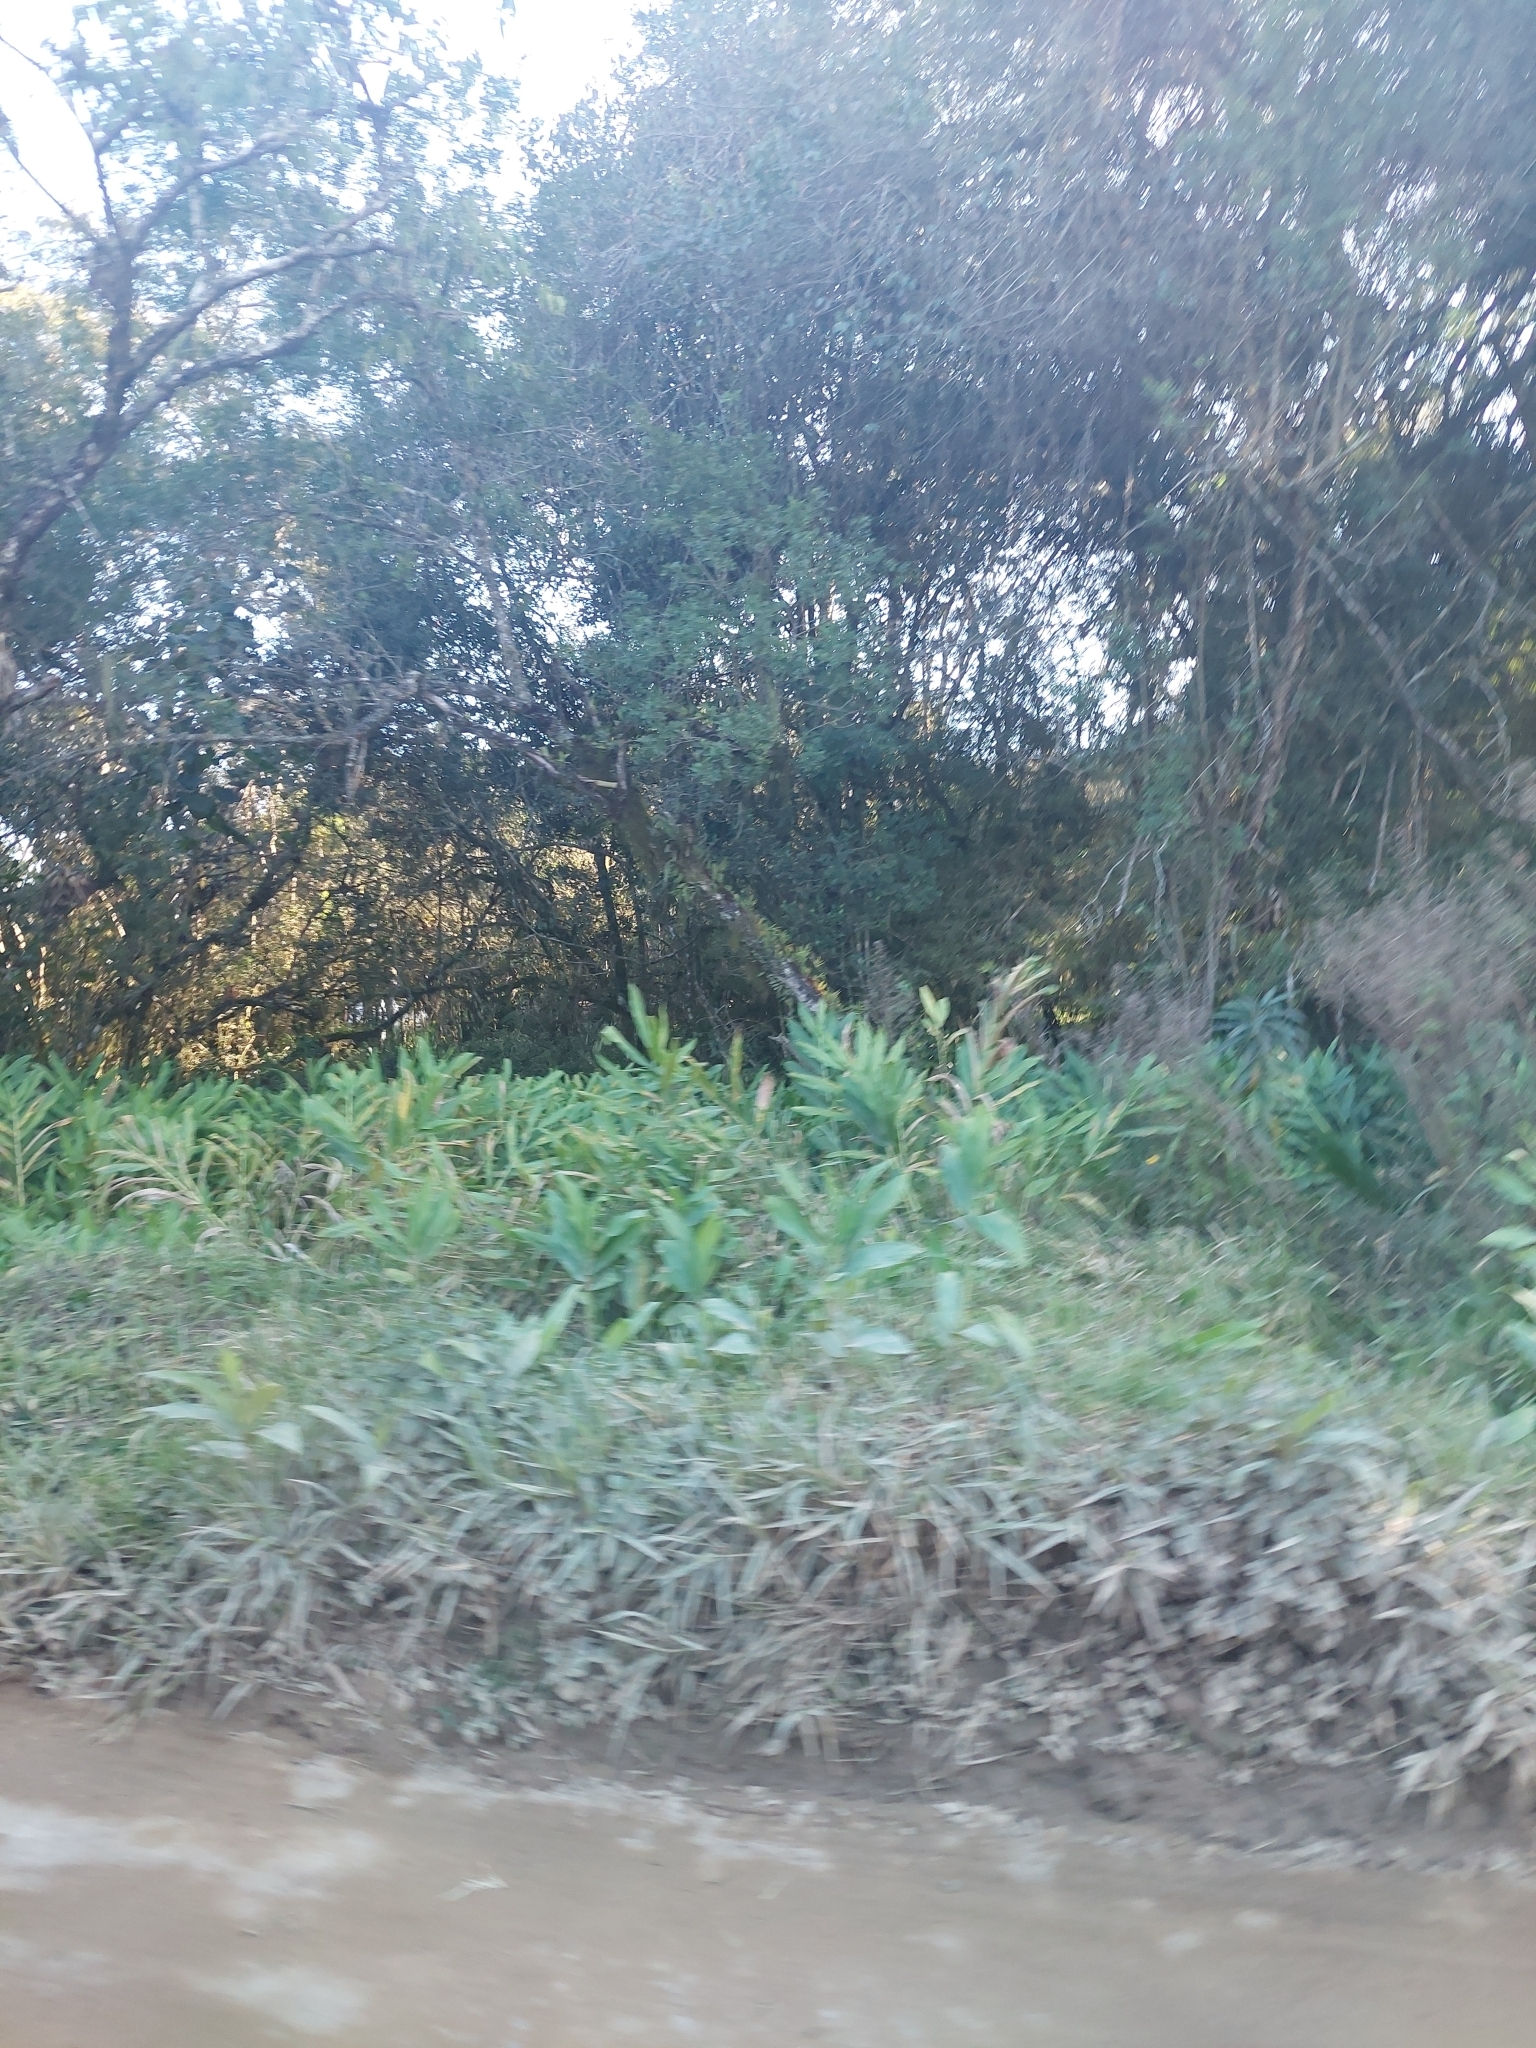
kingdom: Plantae
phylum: Tracheophyta
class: Liliopsida
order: Zingiberales
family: Zingiberaceae
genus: Hedychium
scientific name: Hedychium coronarium
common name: White garland-lily
